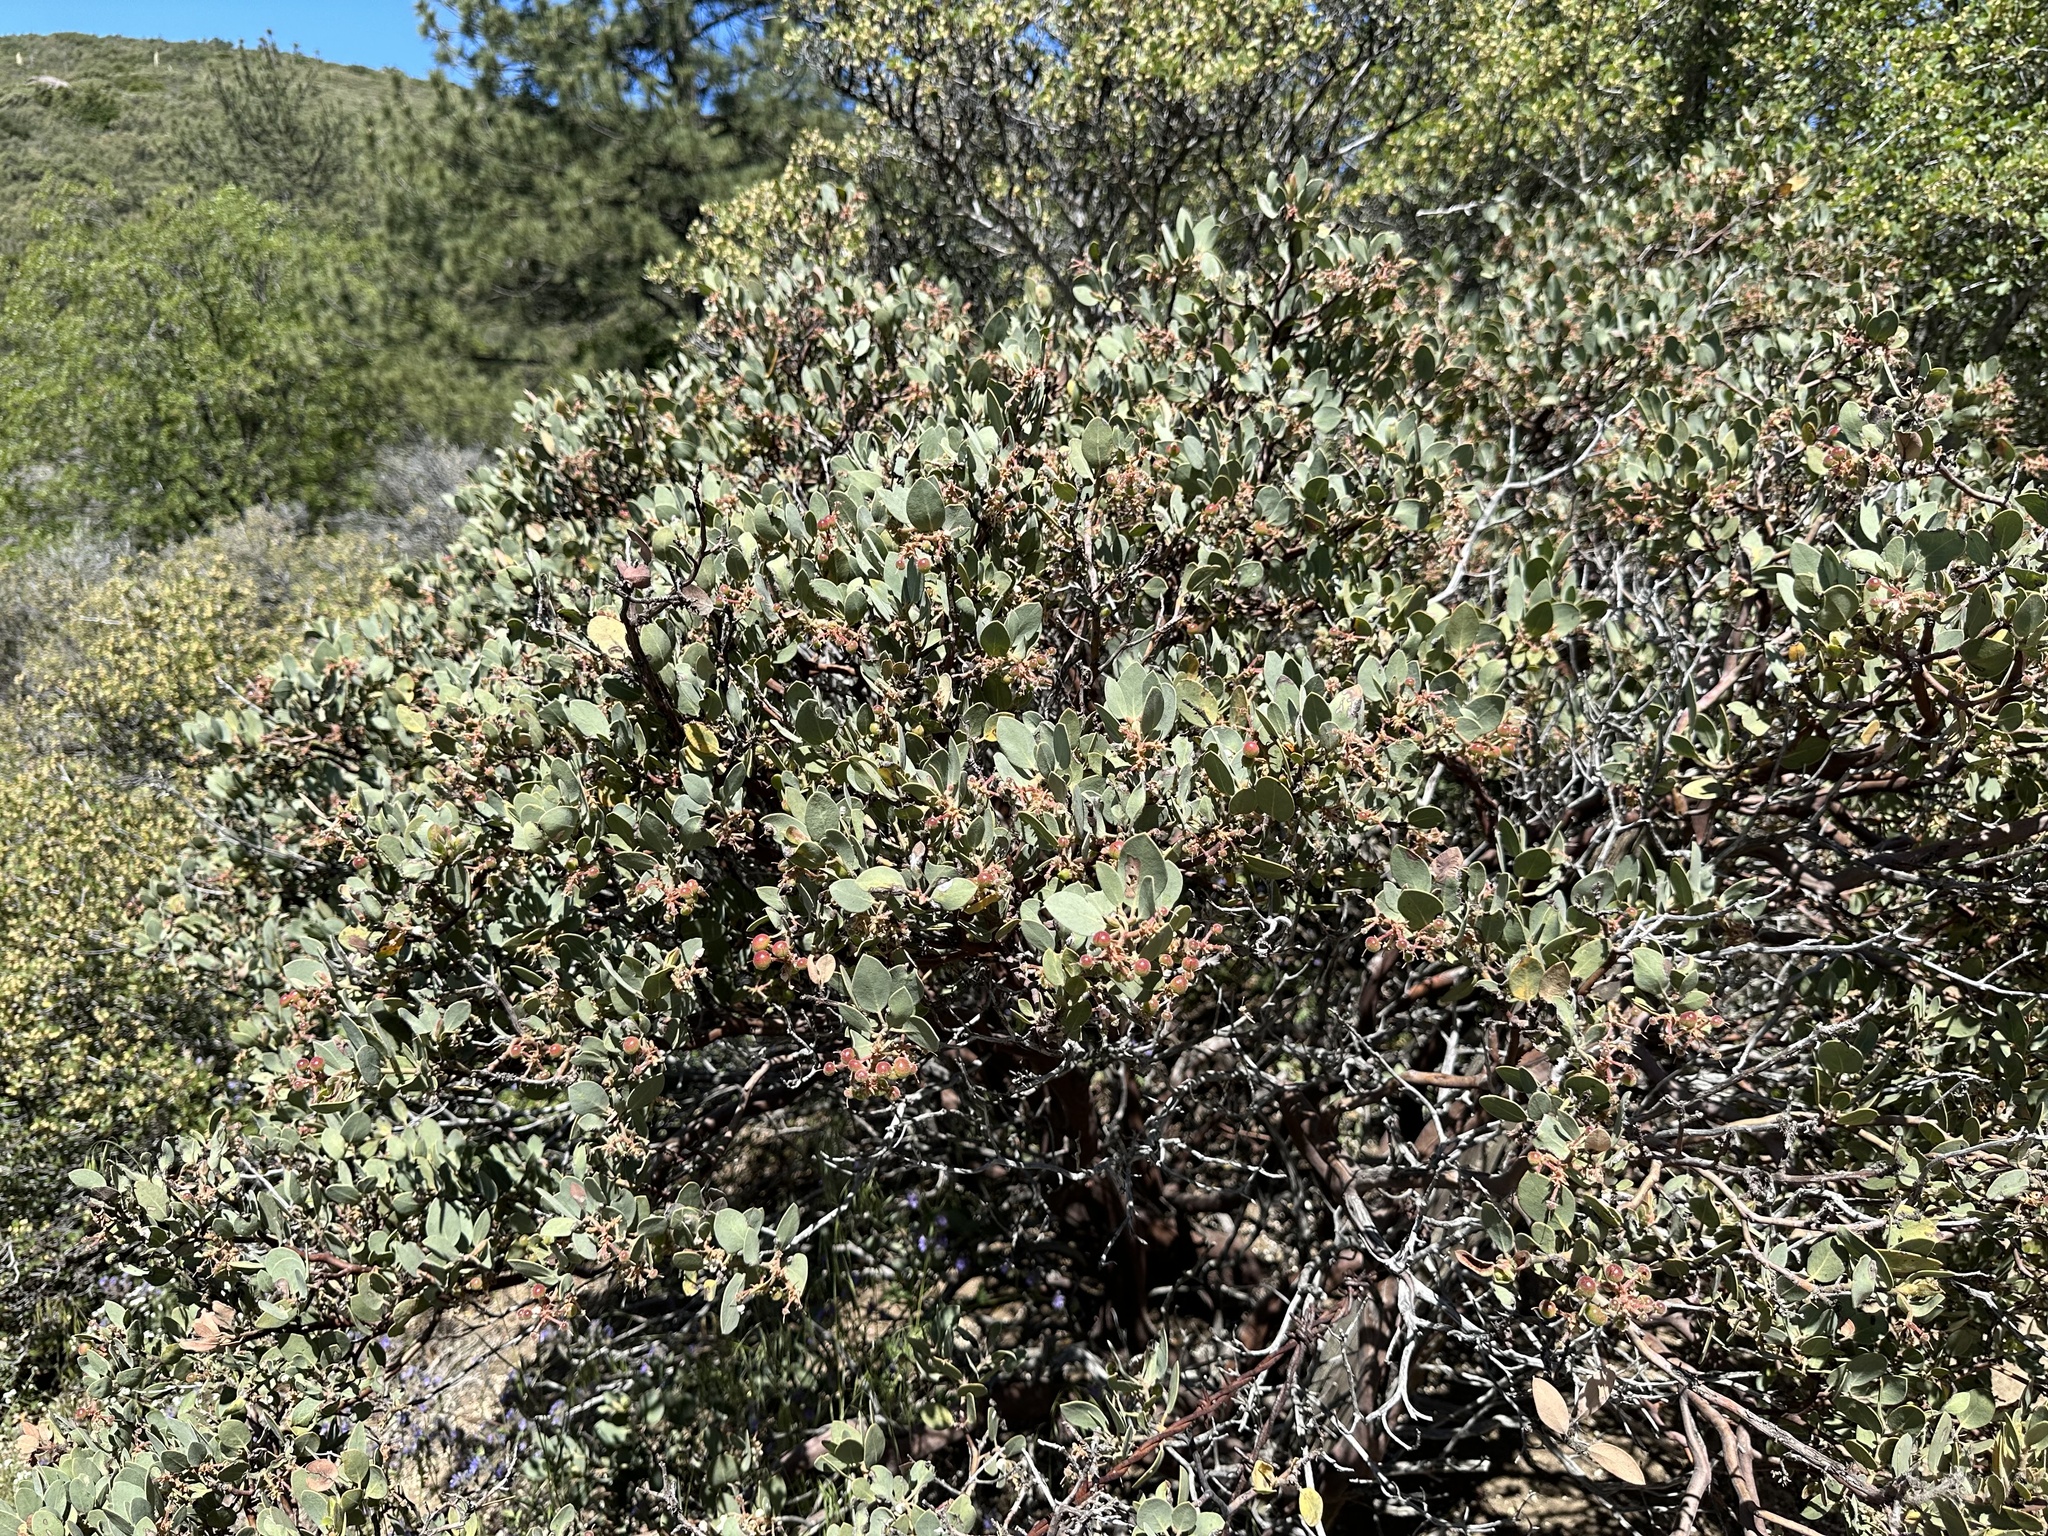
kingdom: Plantae
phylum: Tracheophyta
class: Magnoliopsida
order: Ericales
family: Ericaceae
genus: Arctostaphylos
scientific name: Arctostaphylos glandulosa
